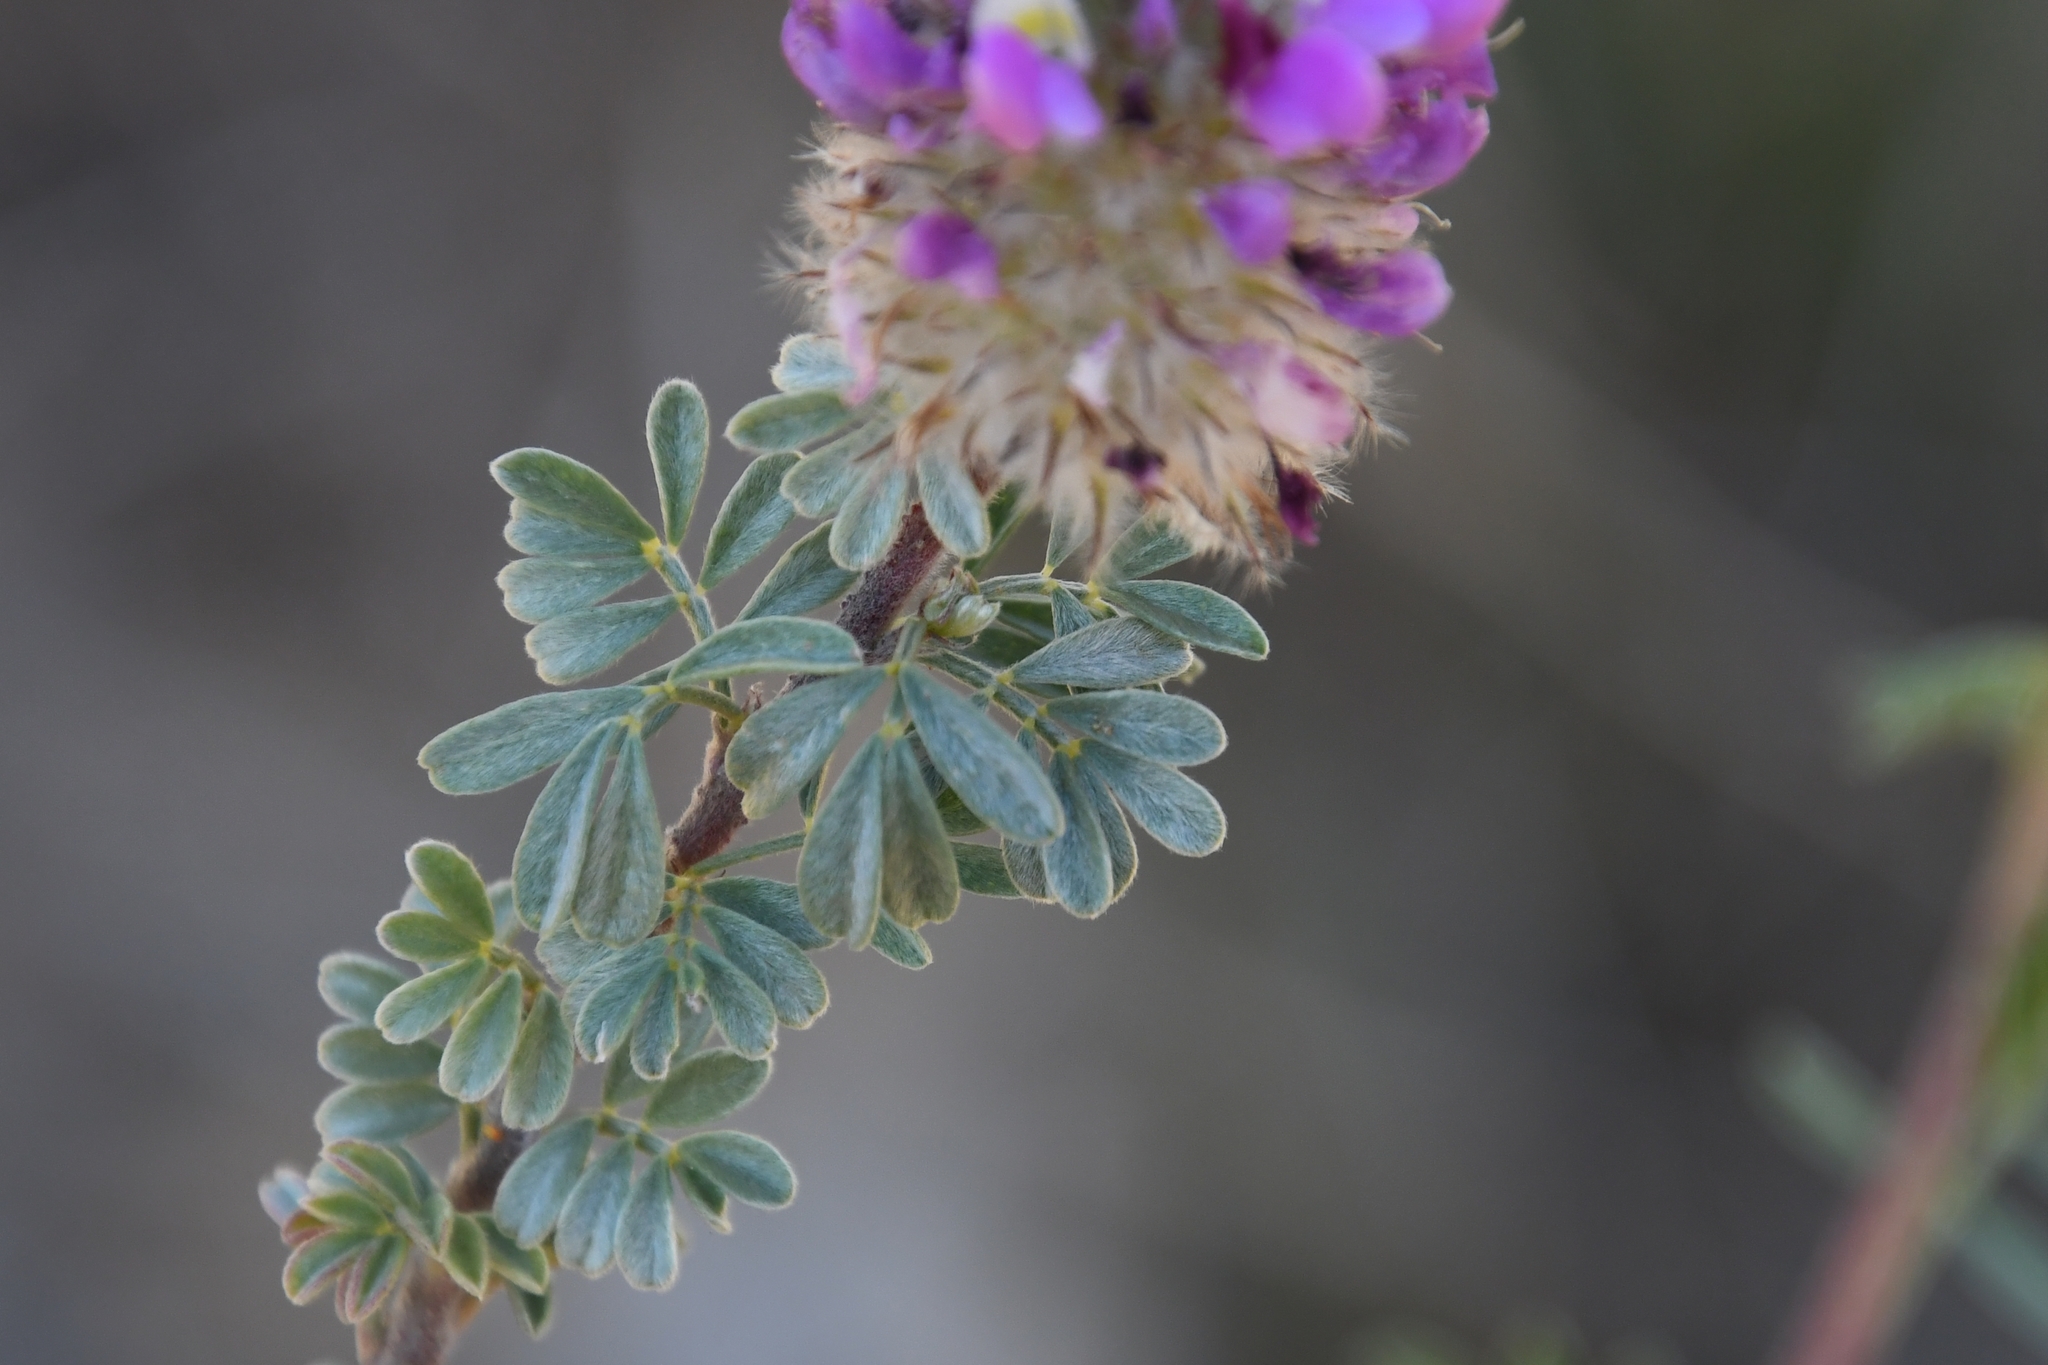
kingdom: Plantae
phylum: Tracheophyta
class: Magnoliopsida
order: Fabales
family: Fabaceae
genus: Dalea
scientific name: Dalea pulchra
